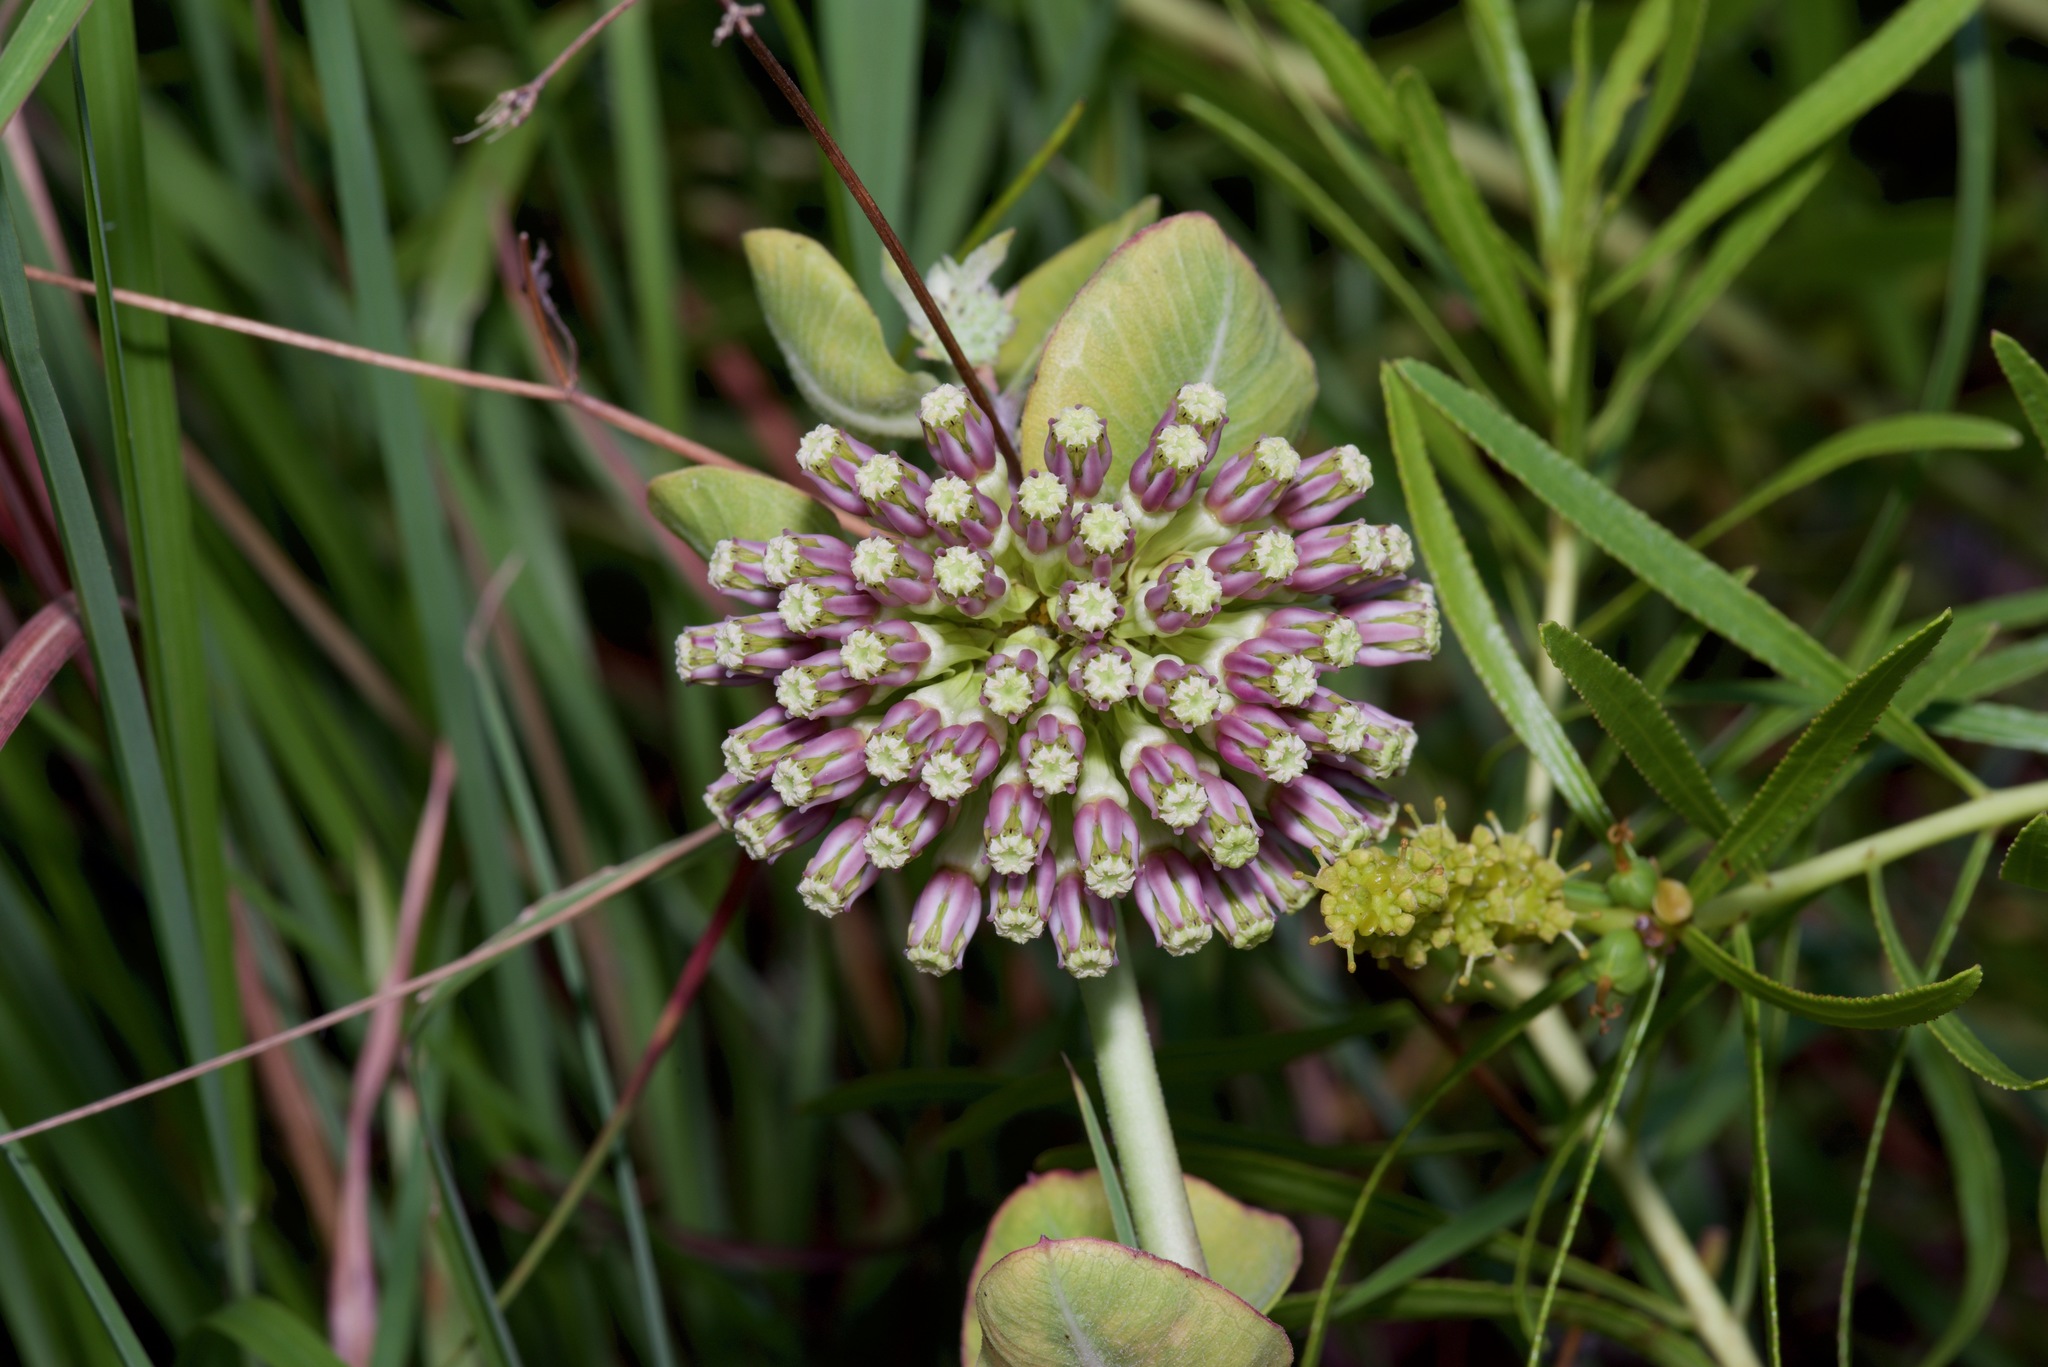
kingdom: Plantae
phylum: Tracheophyta
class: Magnoliopsida
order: Gentianales
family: Apocynaceae
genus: Asclepias
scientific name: Asclepias viridiflora
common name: Green comet milkweed
